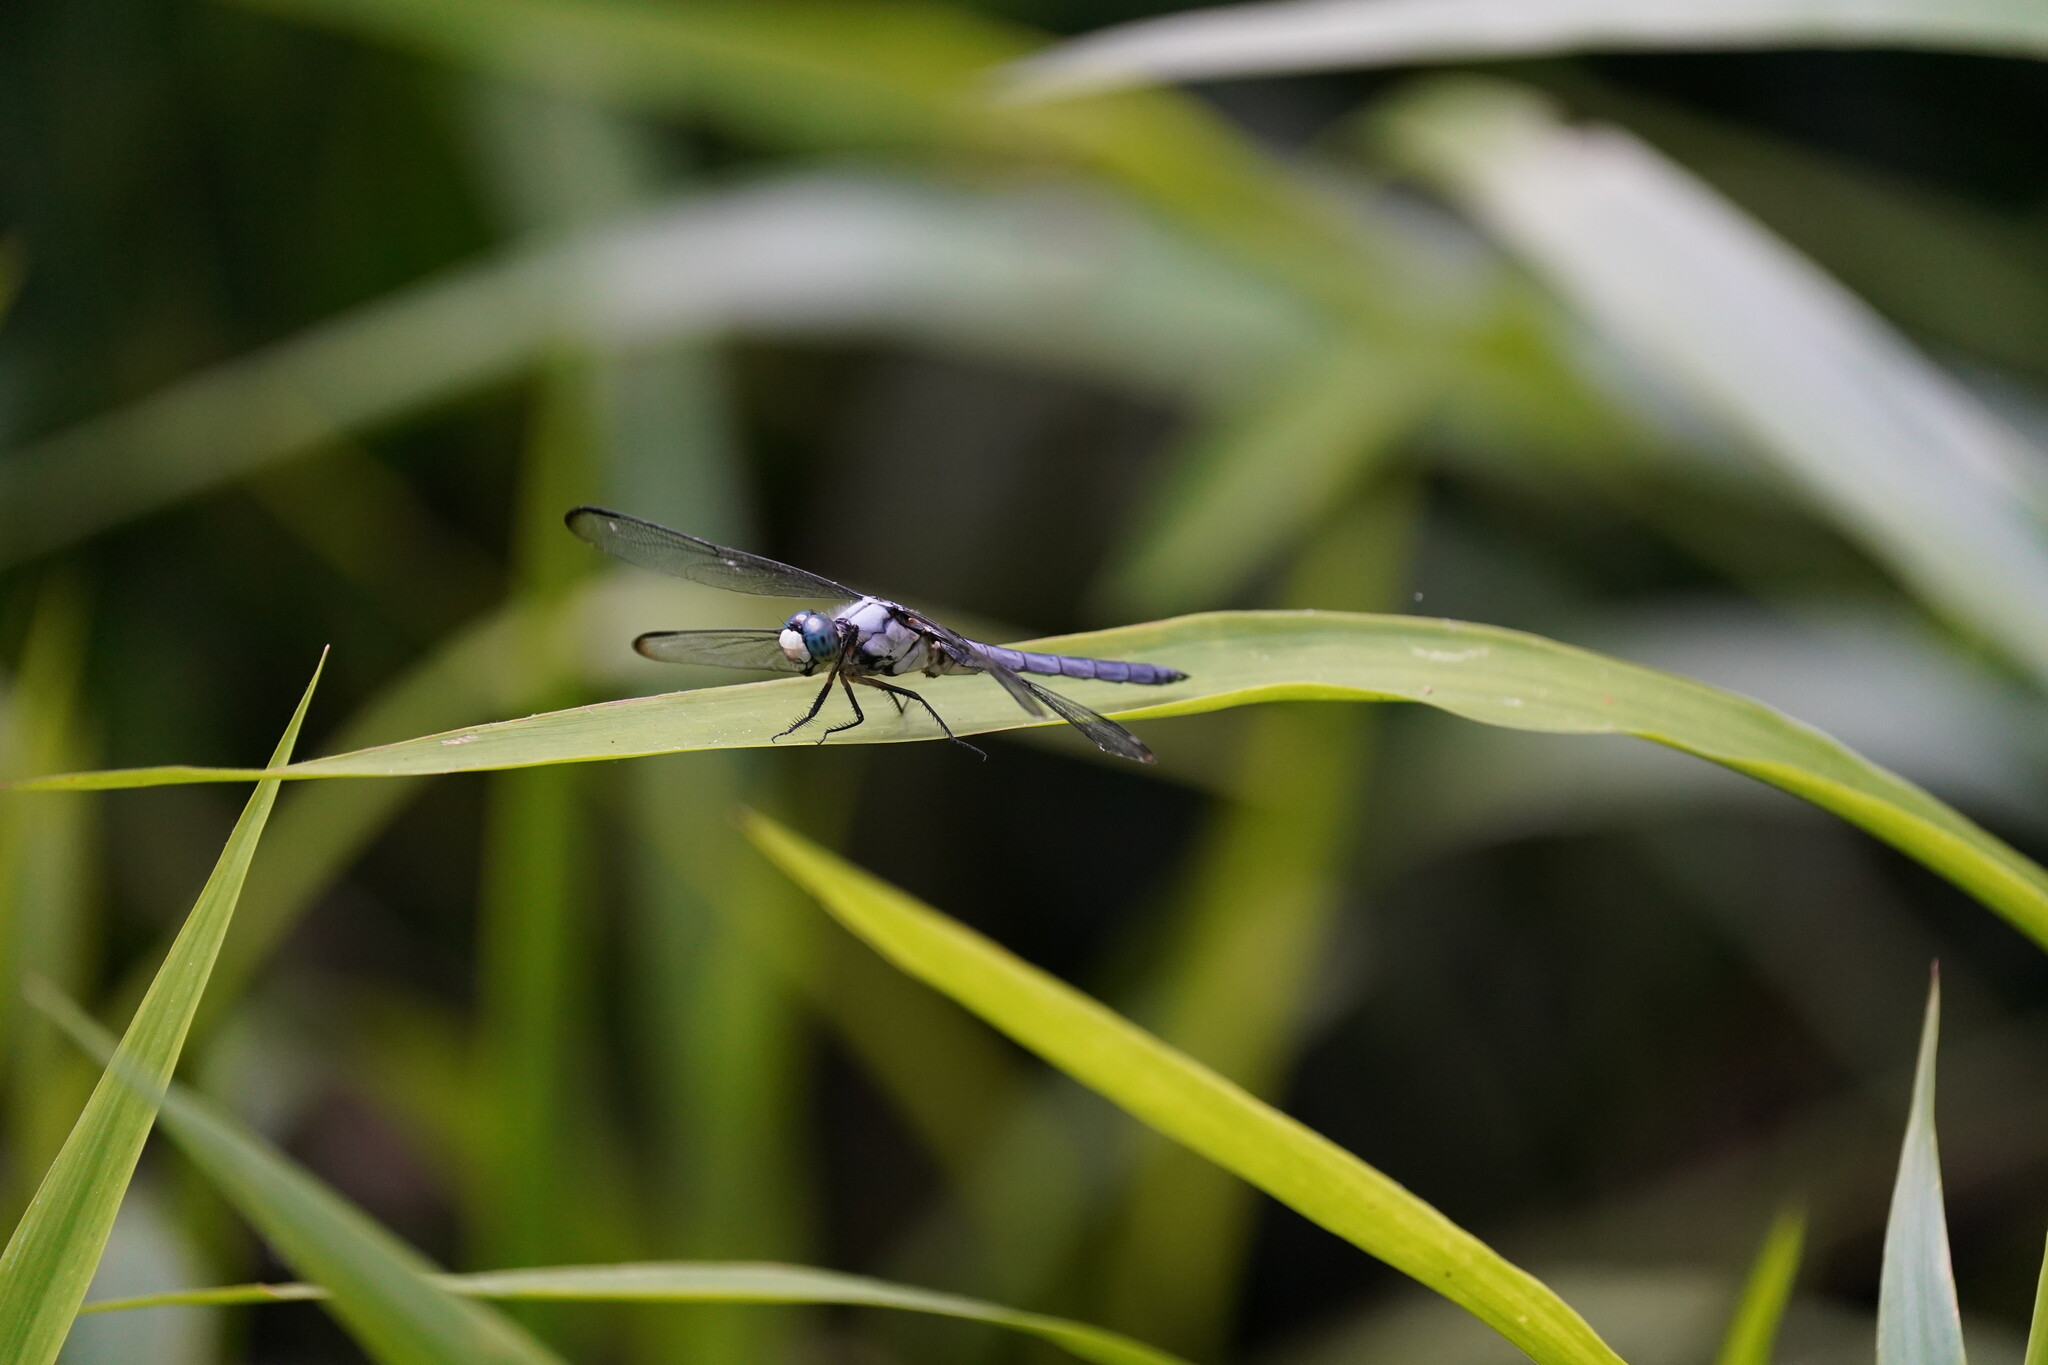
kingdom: Animalia
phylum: Arthropoda
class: Insecta
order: Odonata
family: Libellulidae
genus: Libellula
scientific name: Libellula vibrans
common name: Great blue skimmer
